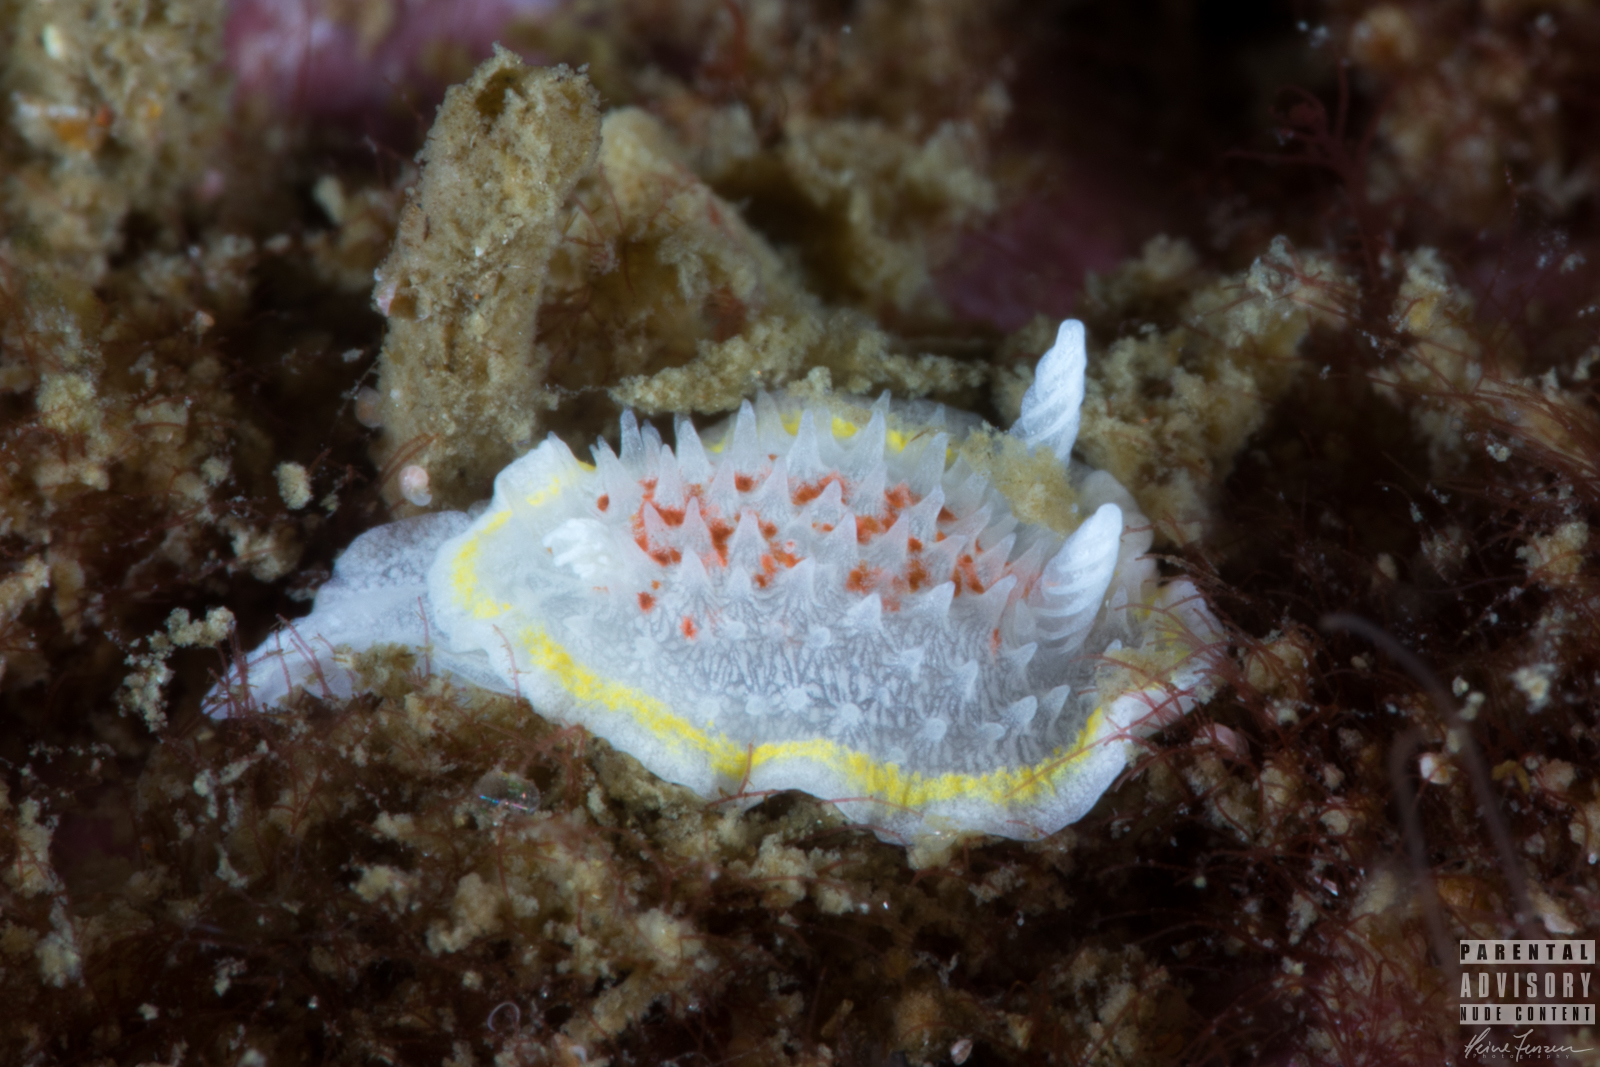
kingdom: Animalia
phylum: Mollusca
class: Gastropoda
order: Nudibranchia
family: Calycidorididae
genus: Diaphorodoris
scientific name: Diaphorodoris luteocincta
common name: Fried egg nudibranch
